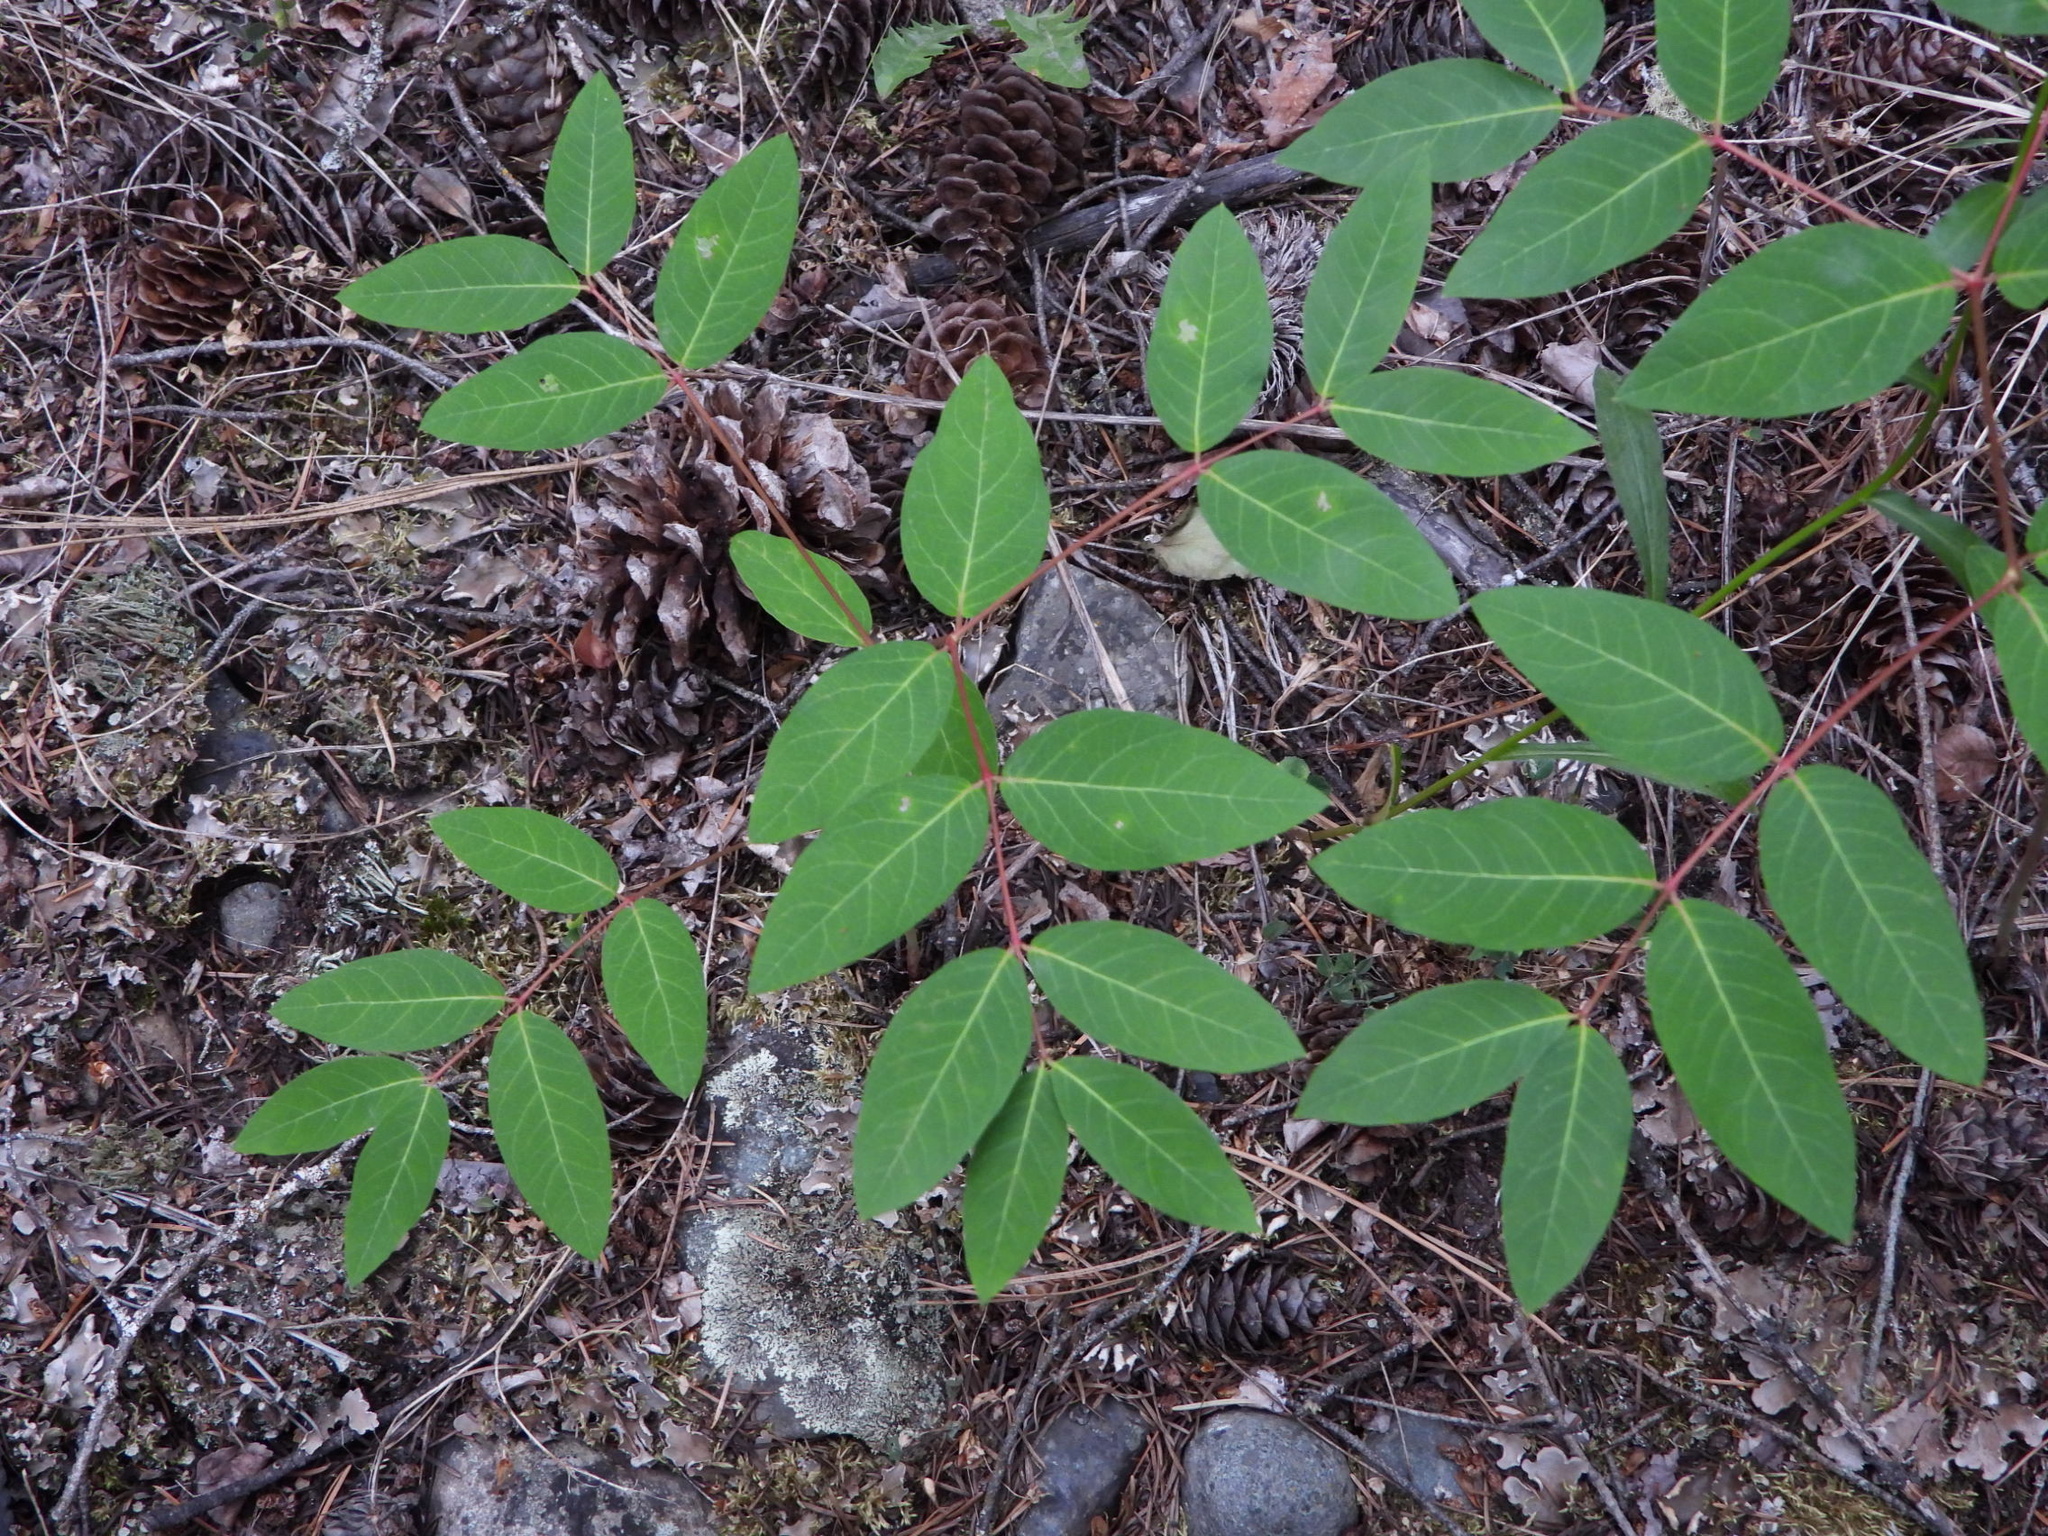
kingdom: Plantae
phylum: Tracheophyta
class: Magnoliopsida
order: Gentianales
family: Apocynaceae
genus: Apocynum
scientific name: Apocynum androsaemifolium
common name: Spreading dogbane
